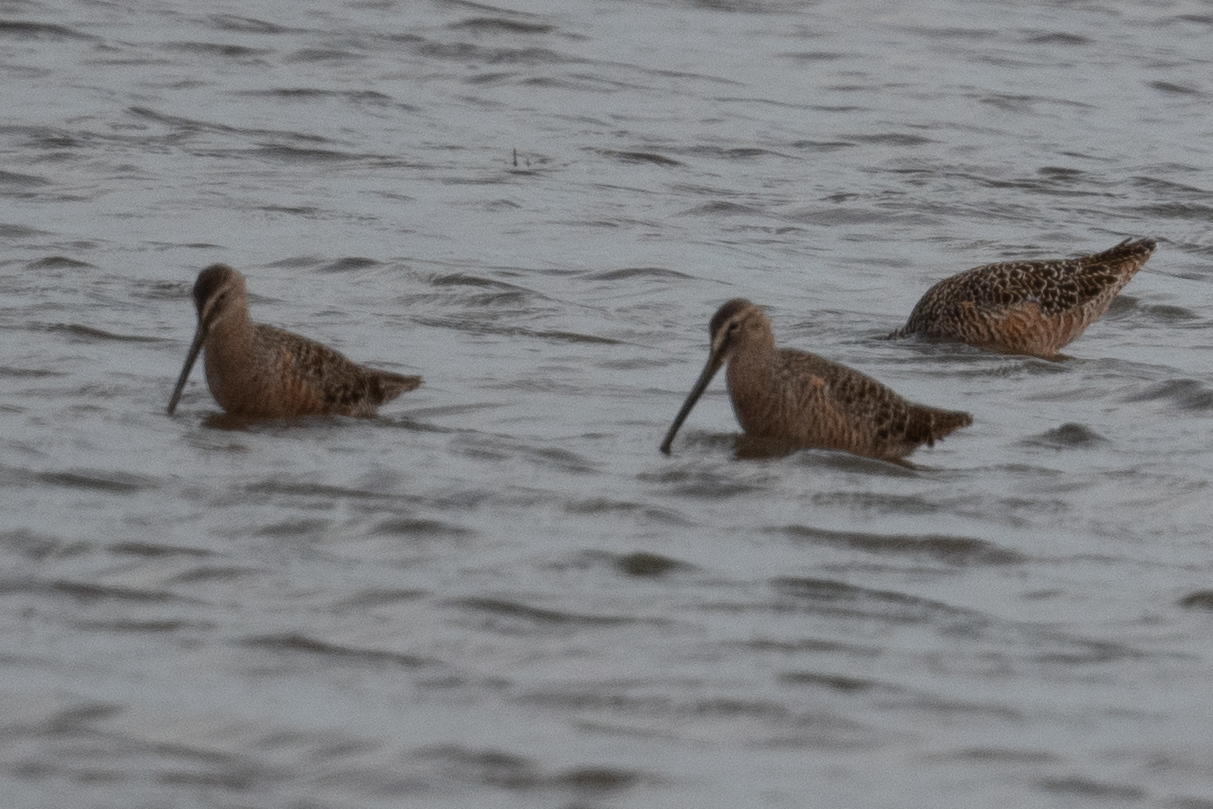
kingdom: Animalia
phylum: Chordata
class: Aves
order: Charadriiformes
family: Scolopacidae
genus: Limnodromus
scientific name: Limnodromus scolopaceus
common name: Long-billed dowitcher
